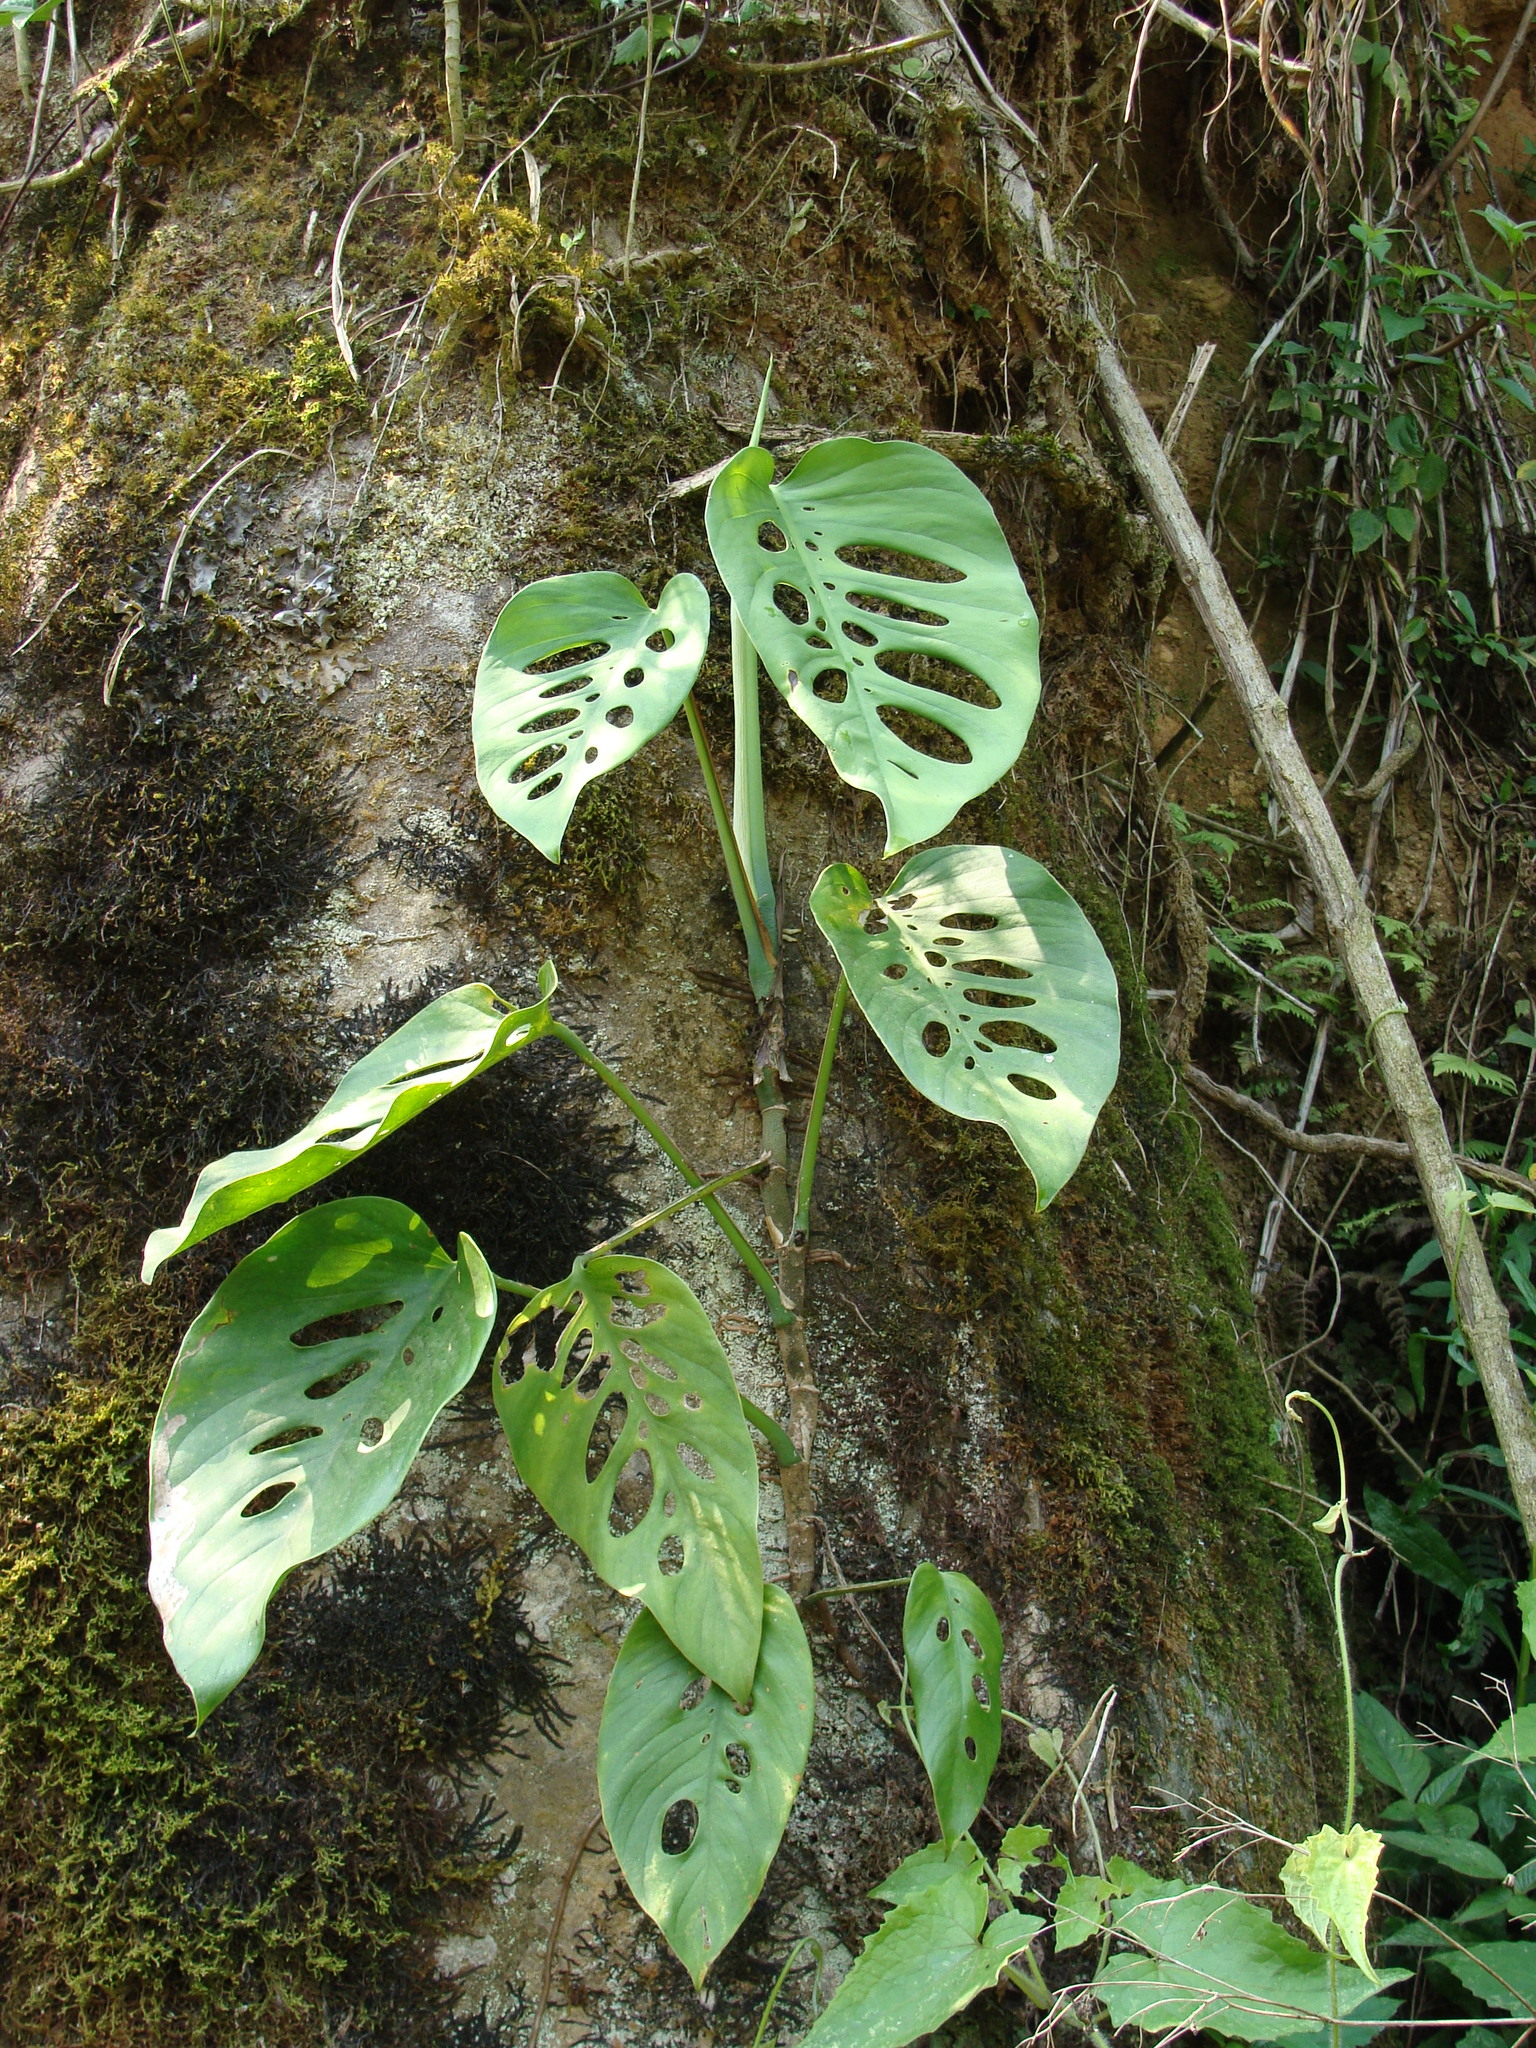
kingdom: Plantae
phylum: Tracheophyta
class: Liliopsida
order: Alismatales
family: Araceae
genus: Monstera
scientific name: Monstera siltepecana
